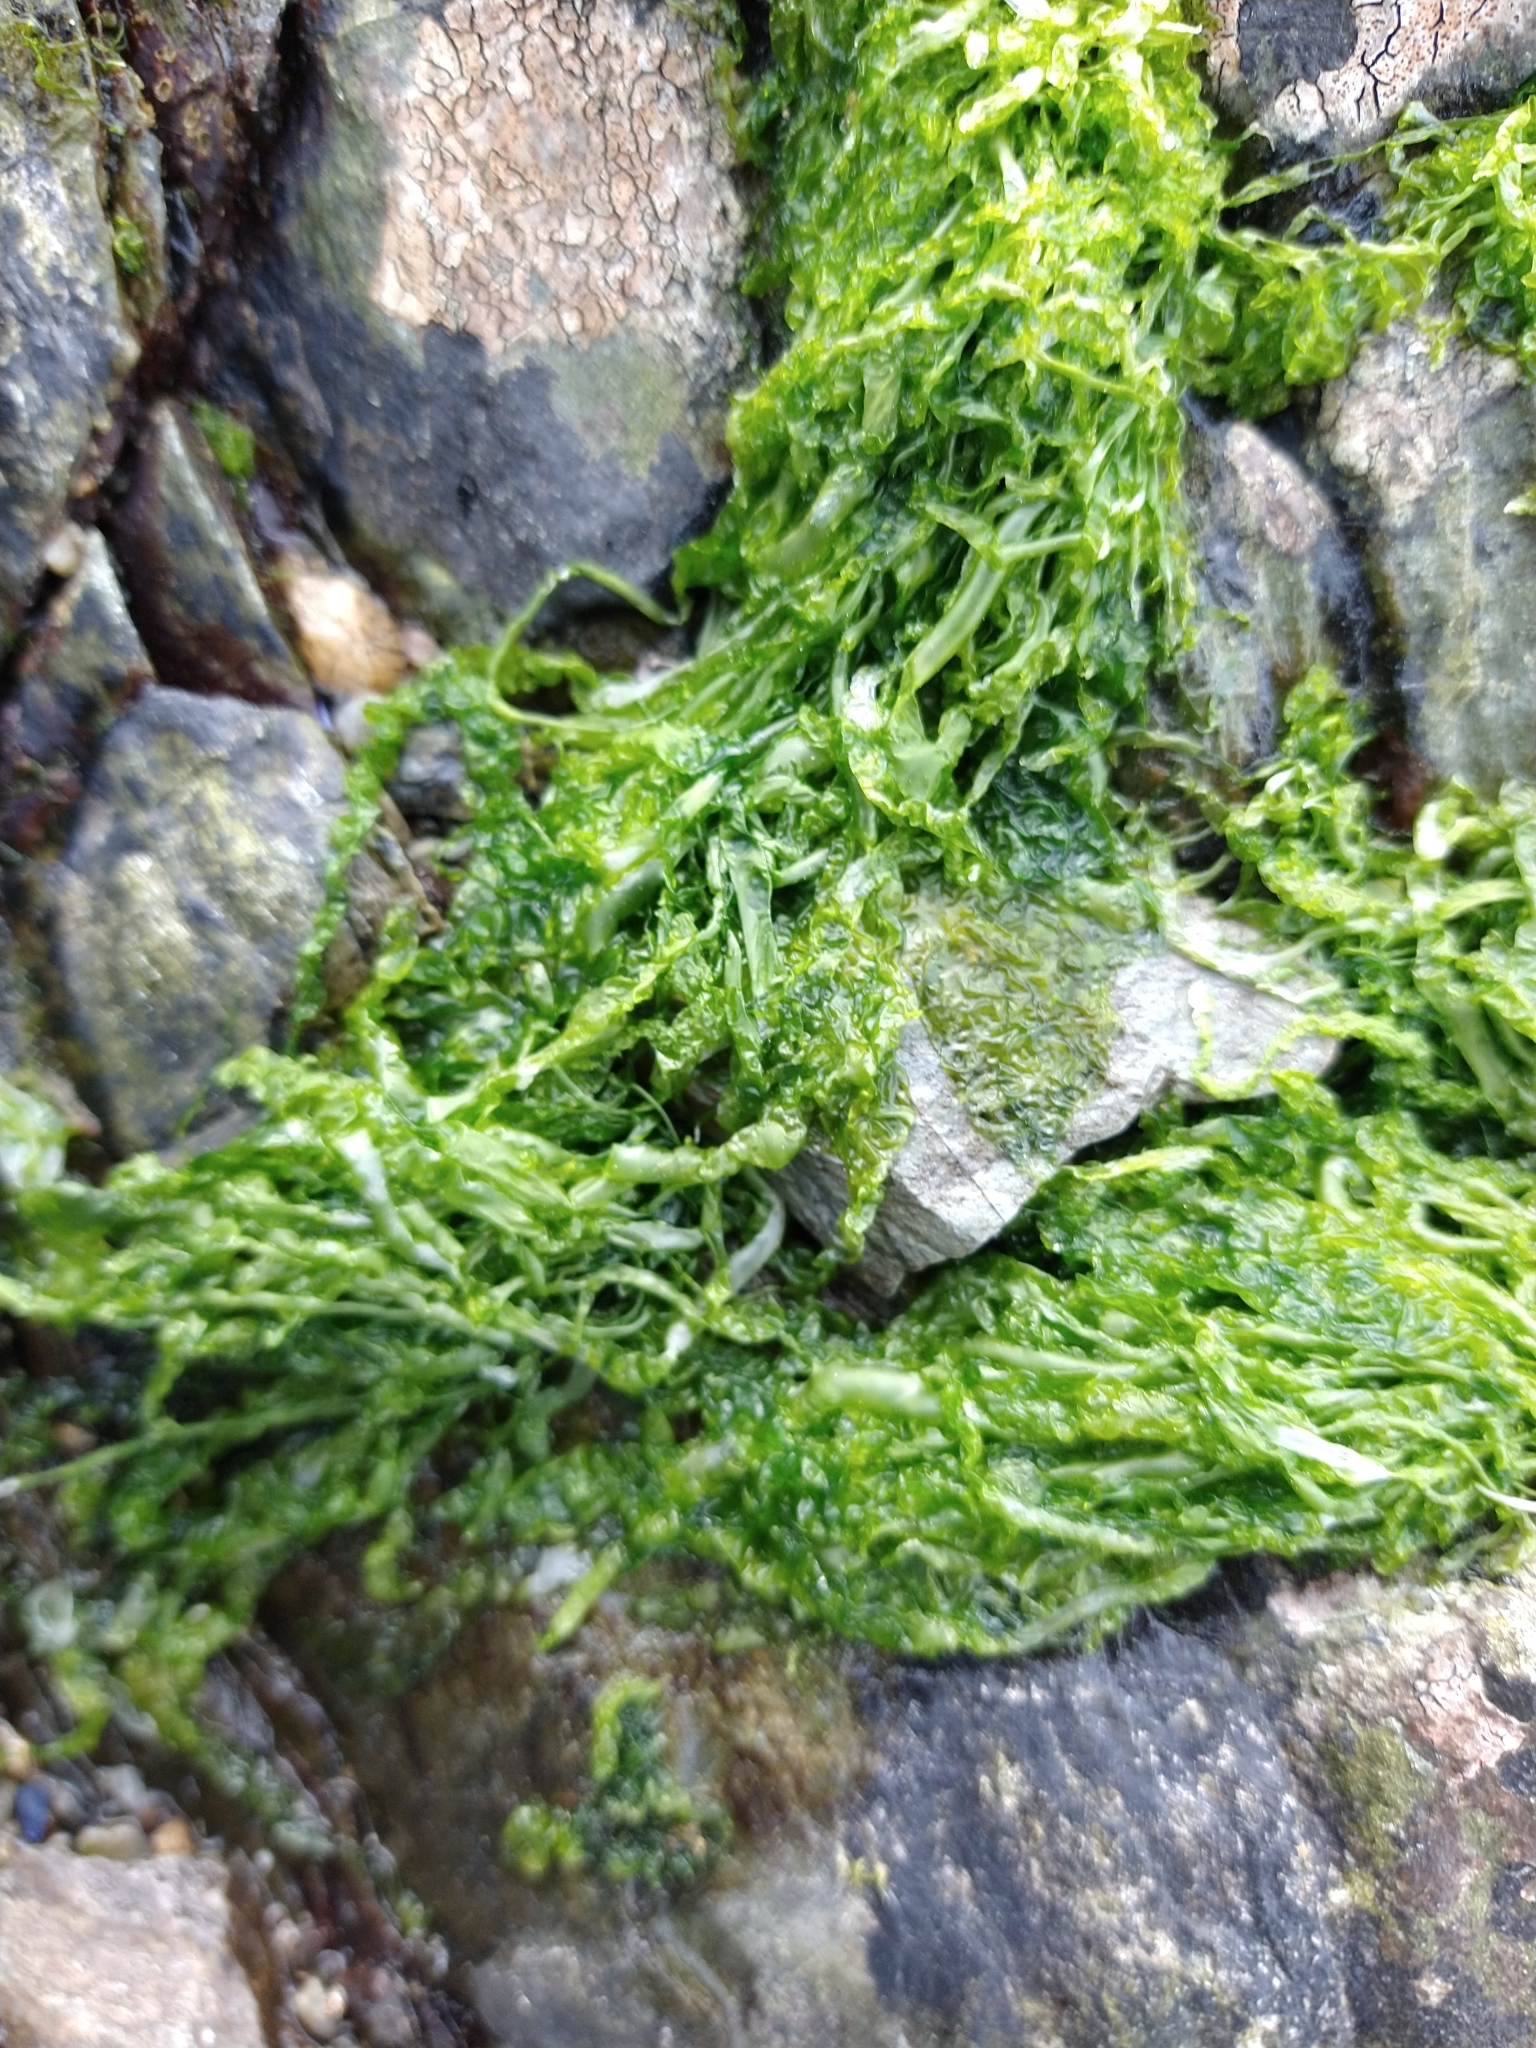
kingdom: Plantae
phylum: Chlorophyta
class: Ulvophyceae
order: Ulvales
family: Ulvaceae
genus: Ulva
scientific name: Ulva intestinalis
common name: Gut weed
